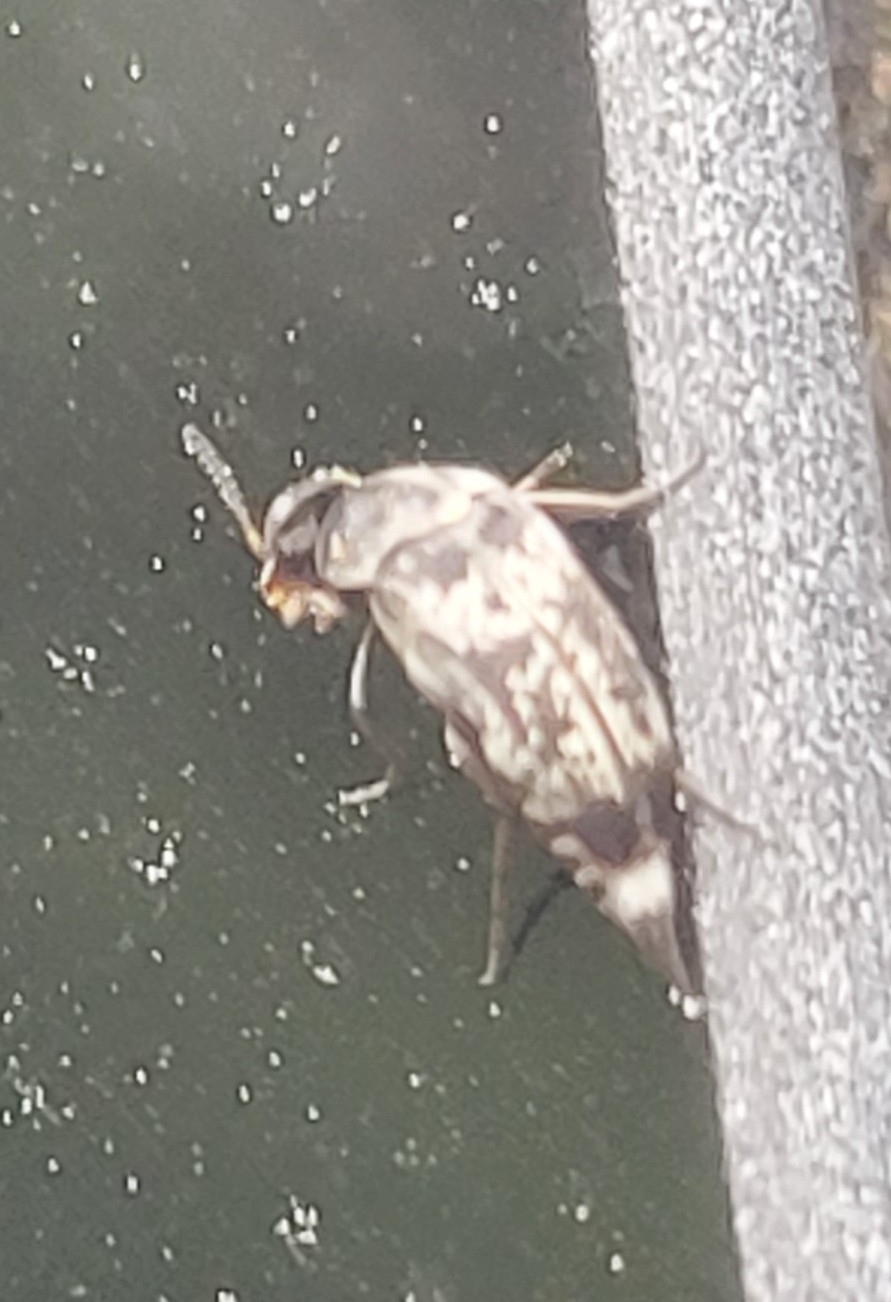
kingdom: Animalia
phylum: Arthropoda
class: Insecta
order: Coleoptera
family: Mordellidae
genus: Mordella
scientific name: Mordella marginata
